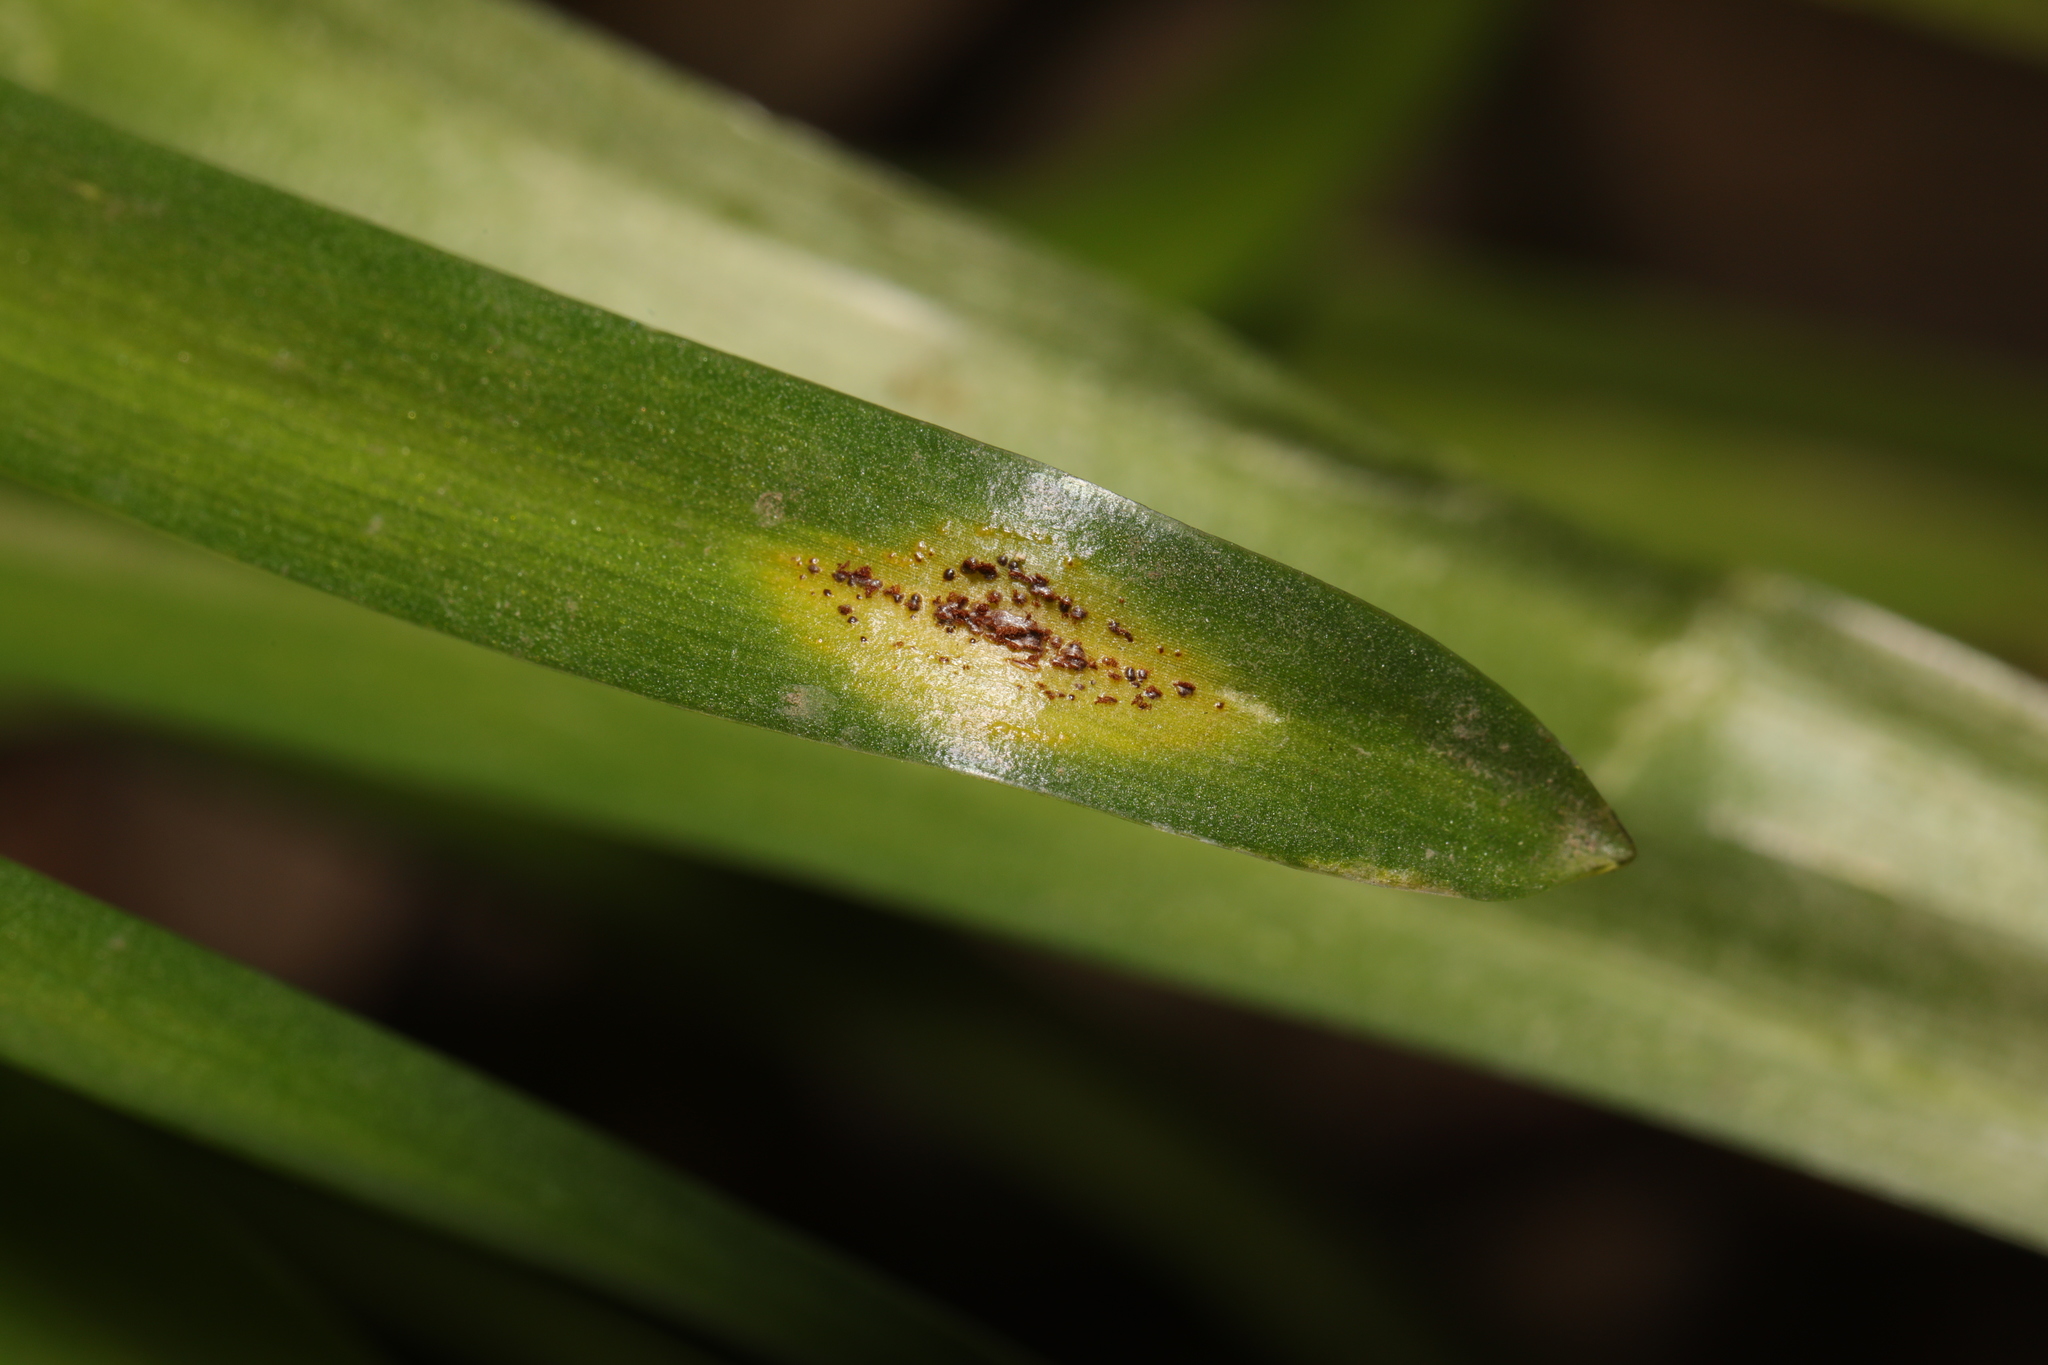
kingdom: Fungi
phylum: Basidiomycota
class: Pucciniomycetes
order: Pucciniales
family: Pucciniaceae
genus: Uromyces
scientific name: Uromyces hyacinthi
